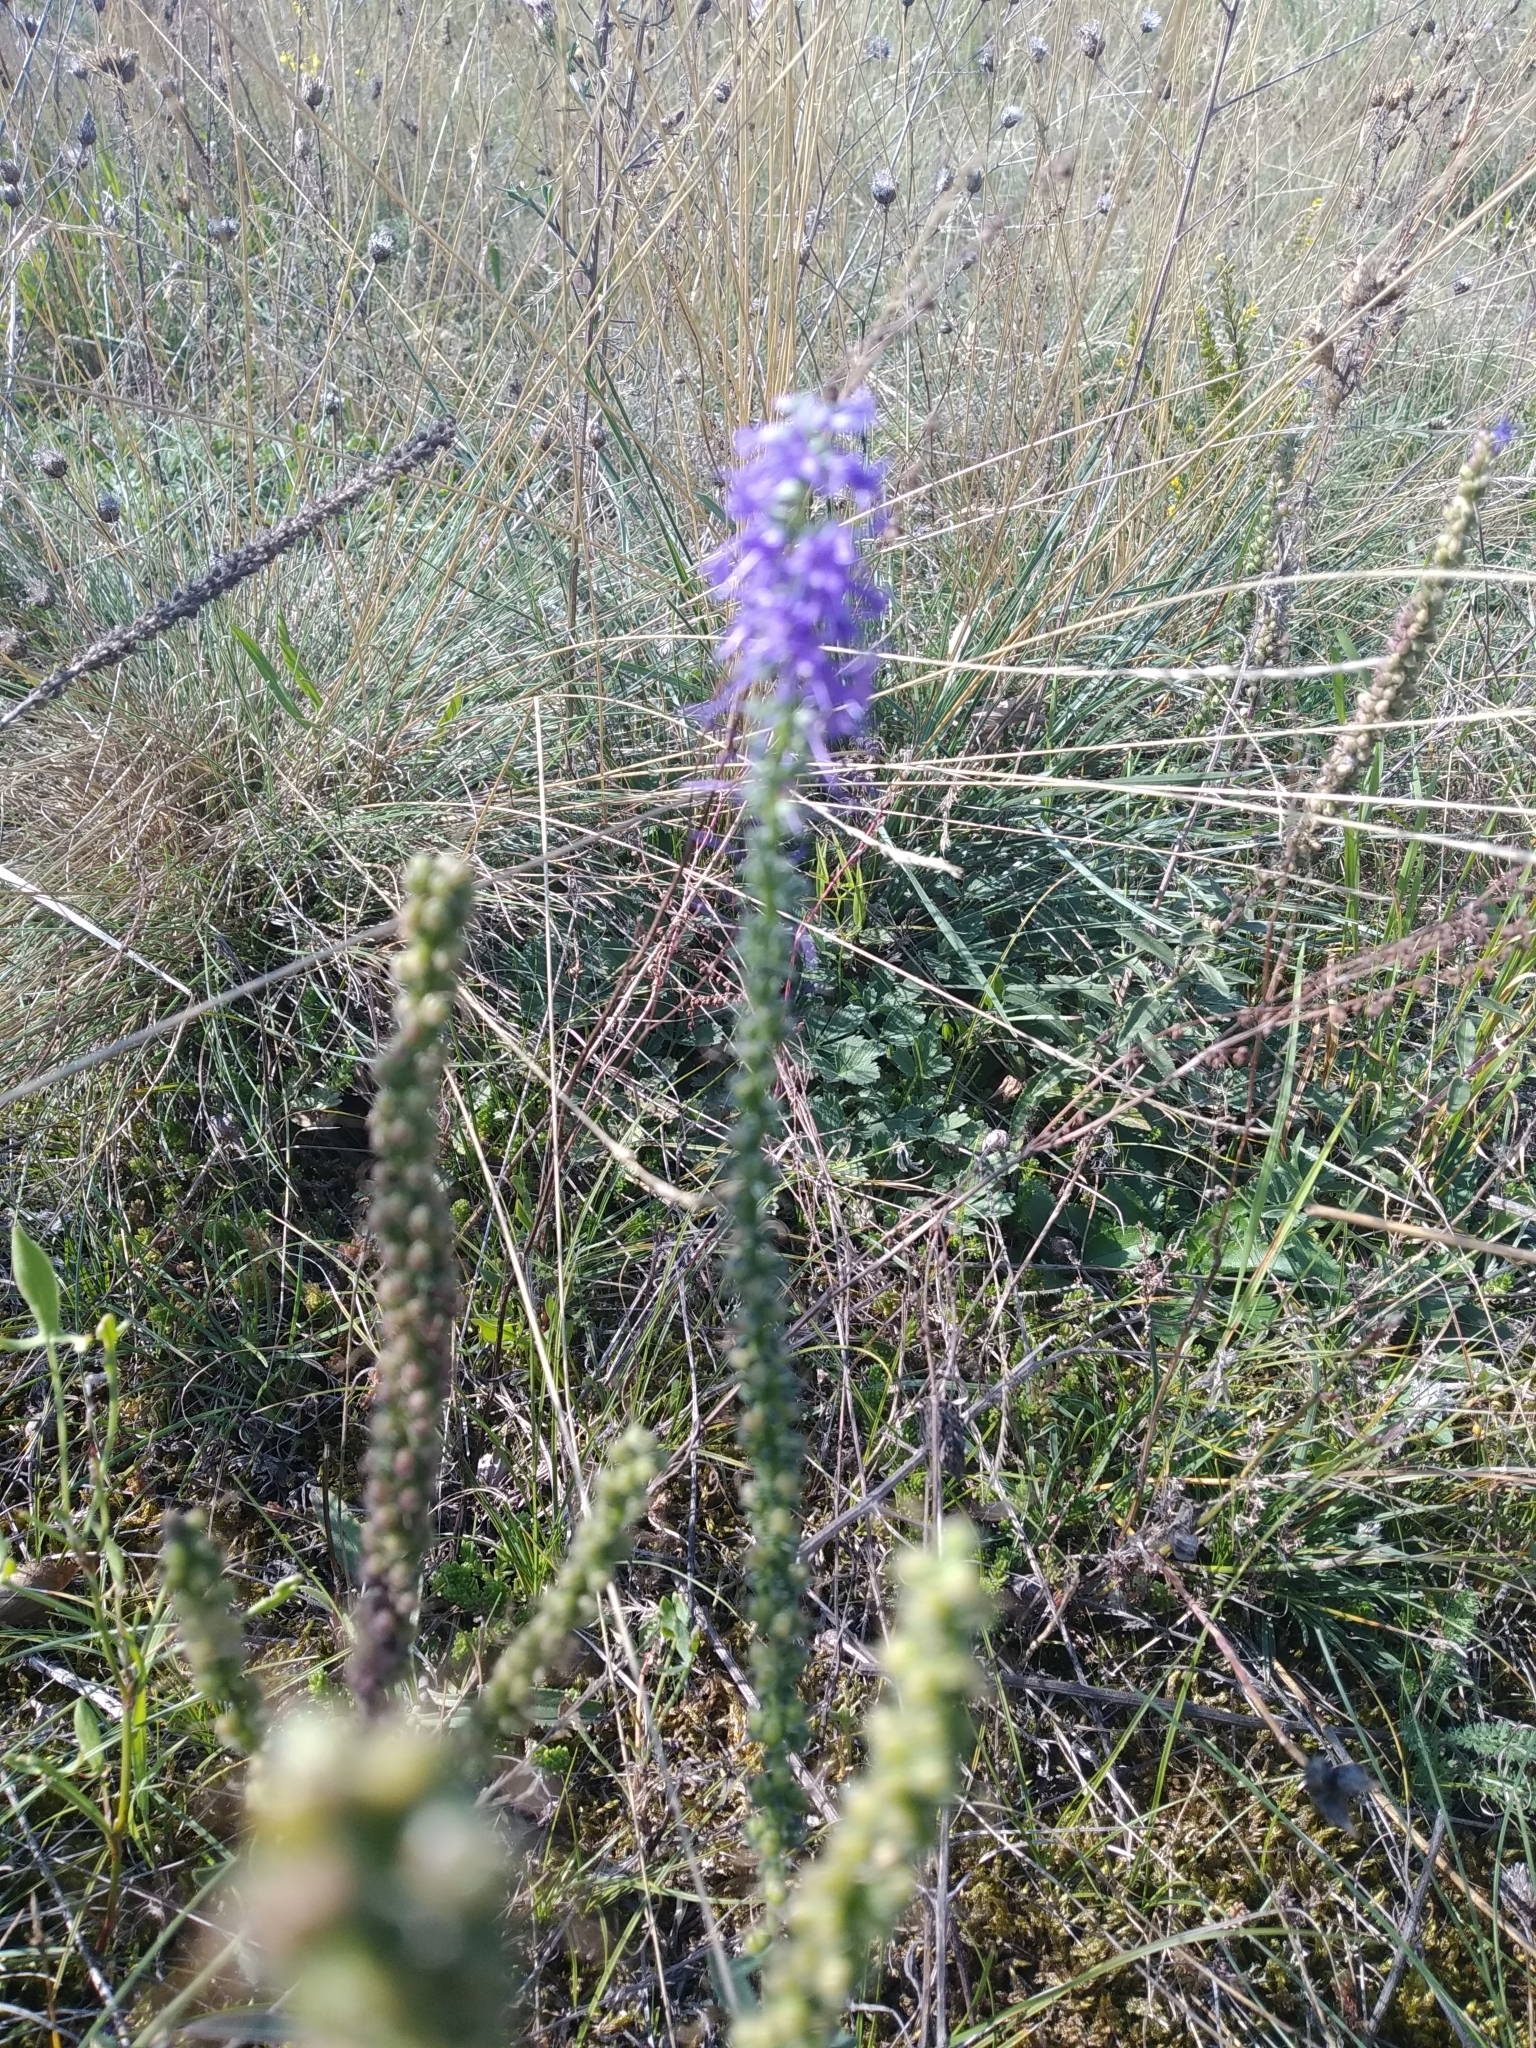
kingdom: Plantae
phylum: Tracheophyta
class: Magnoliopsida
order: Lamiales
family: Plantaginaceae
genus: Veronica
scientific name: Veronica spicata
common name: Spiked speedwell
